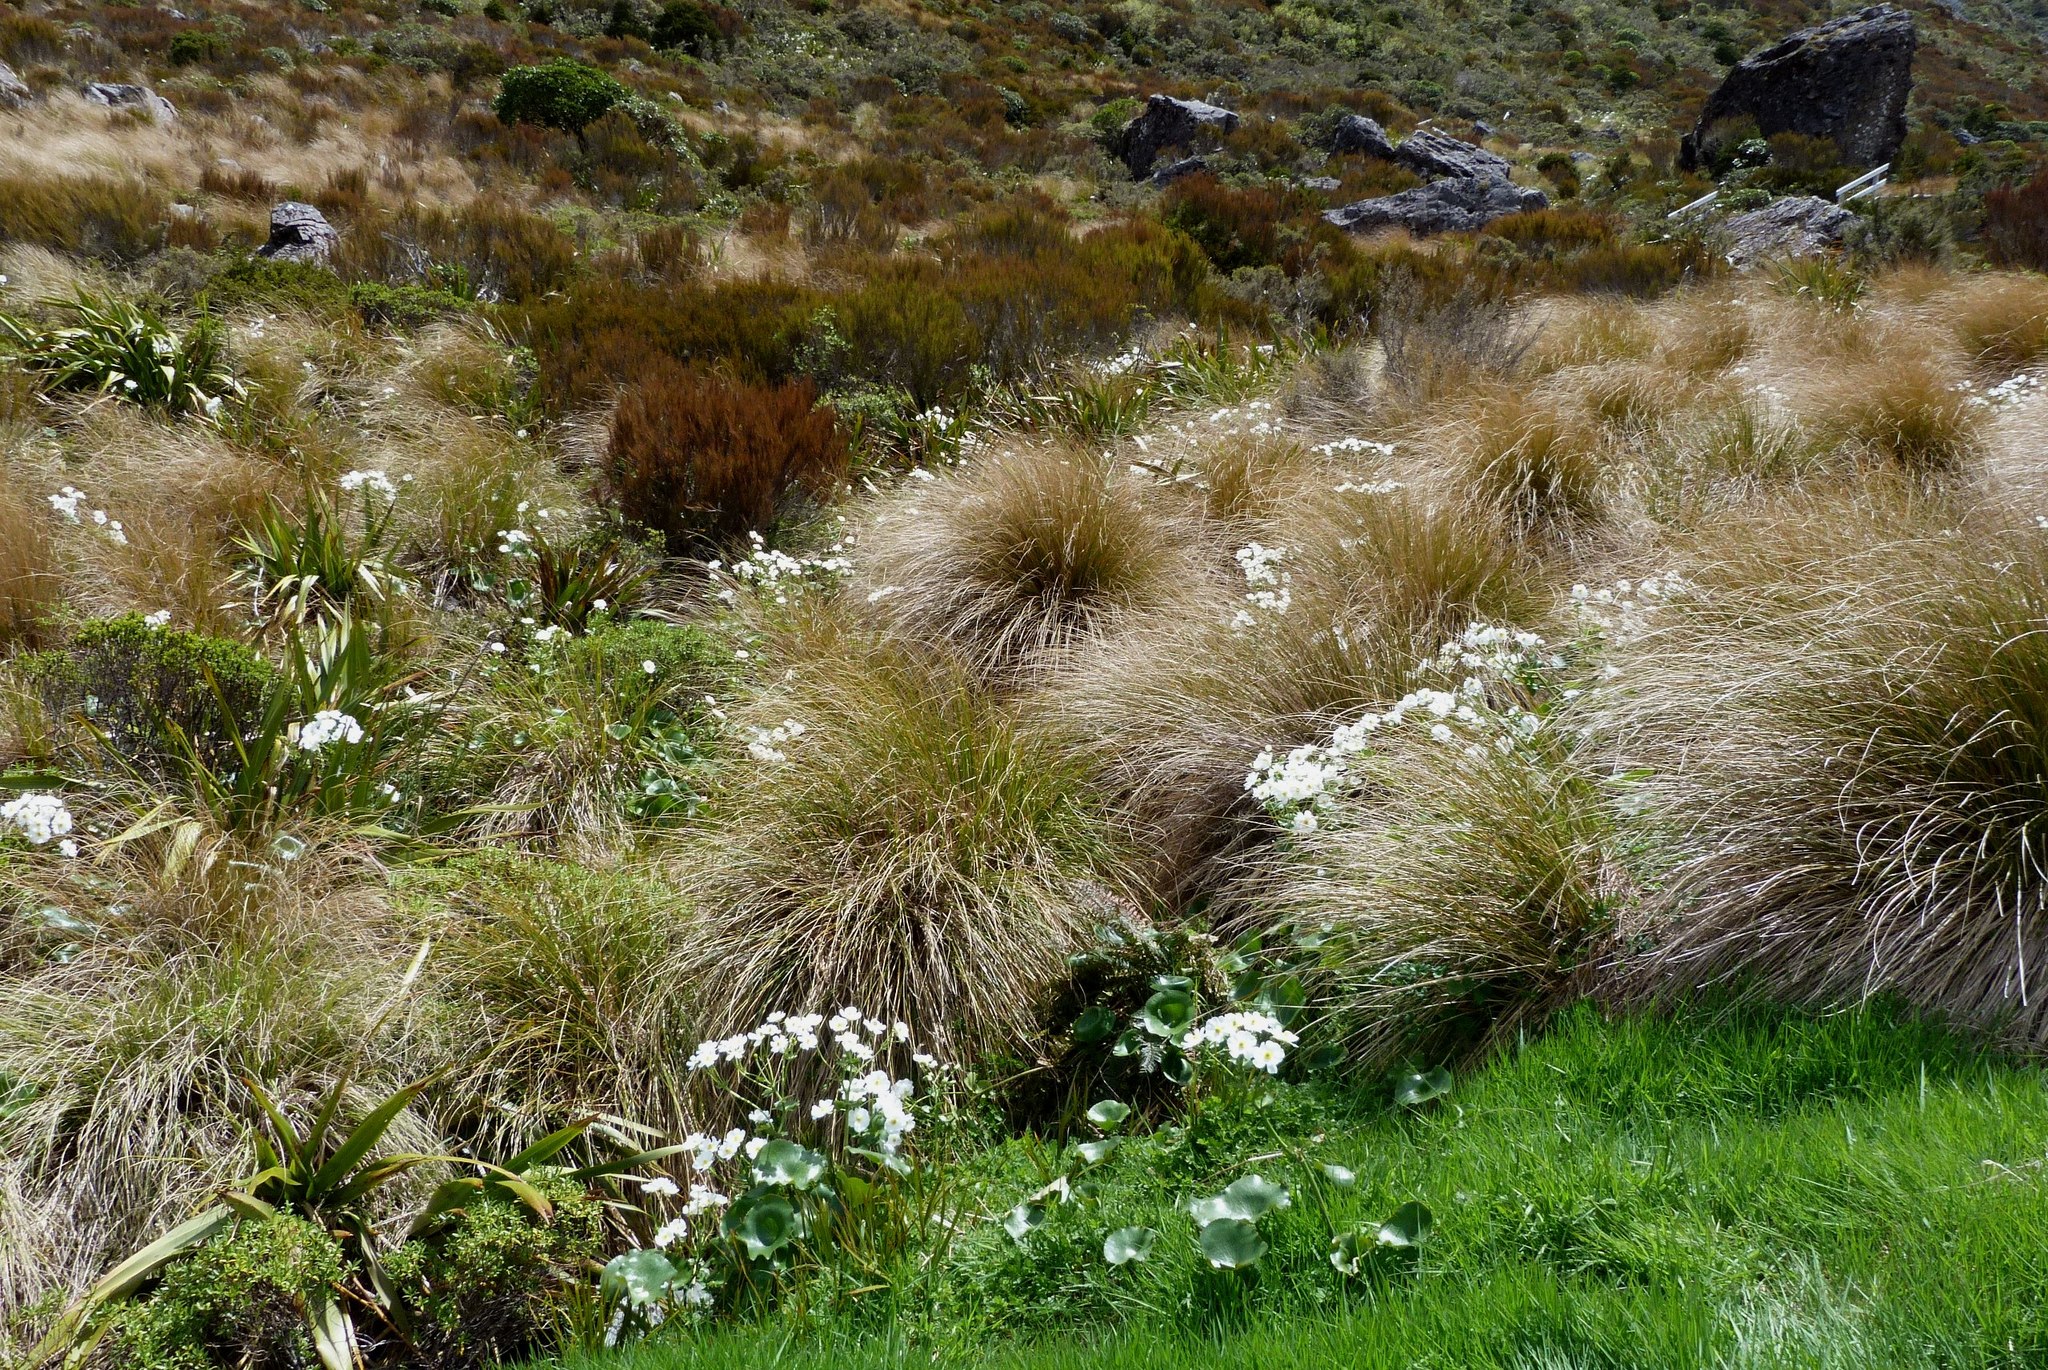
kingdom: Plantae
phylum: Tracheophyta
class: Magnoliopsida
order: Ranunculales
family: Ranunculaceae
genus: Ranunculus
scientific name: Ranunculus lyallii
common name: Mountain-lily
